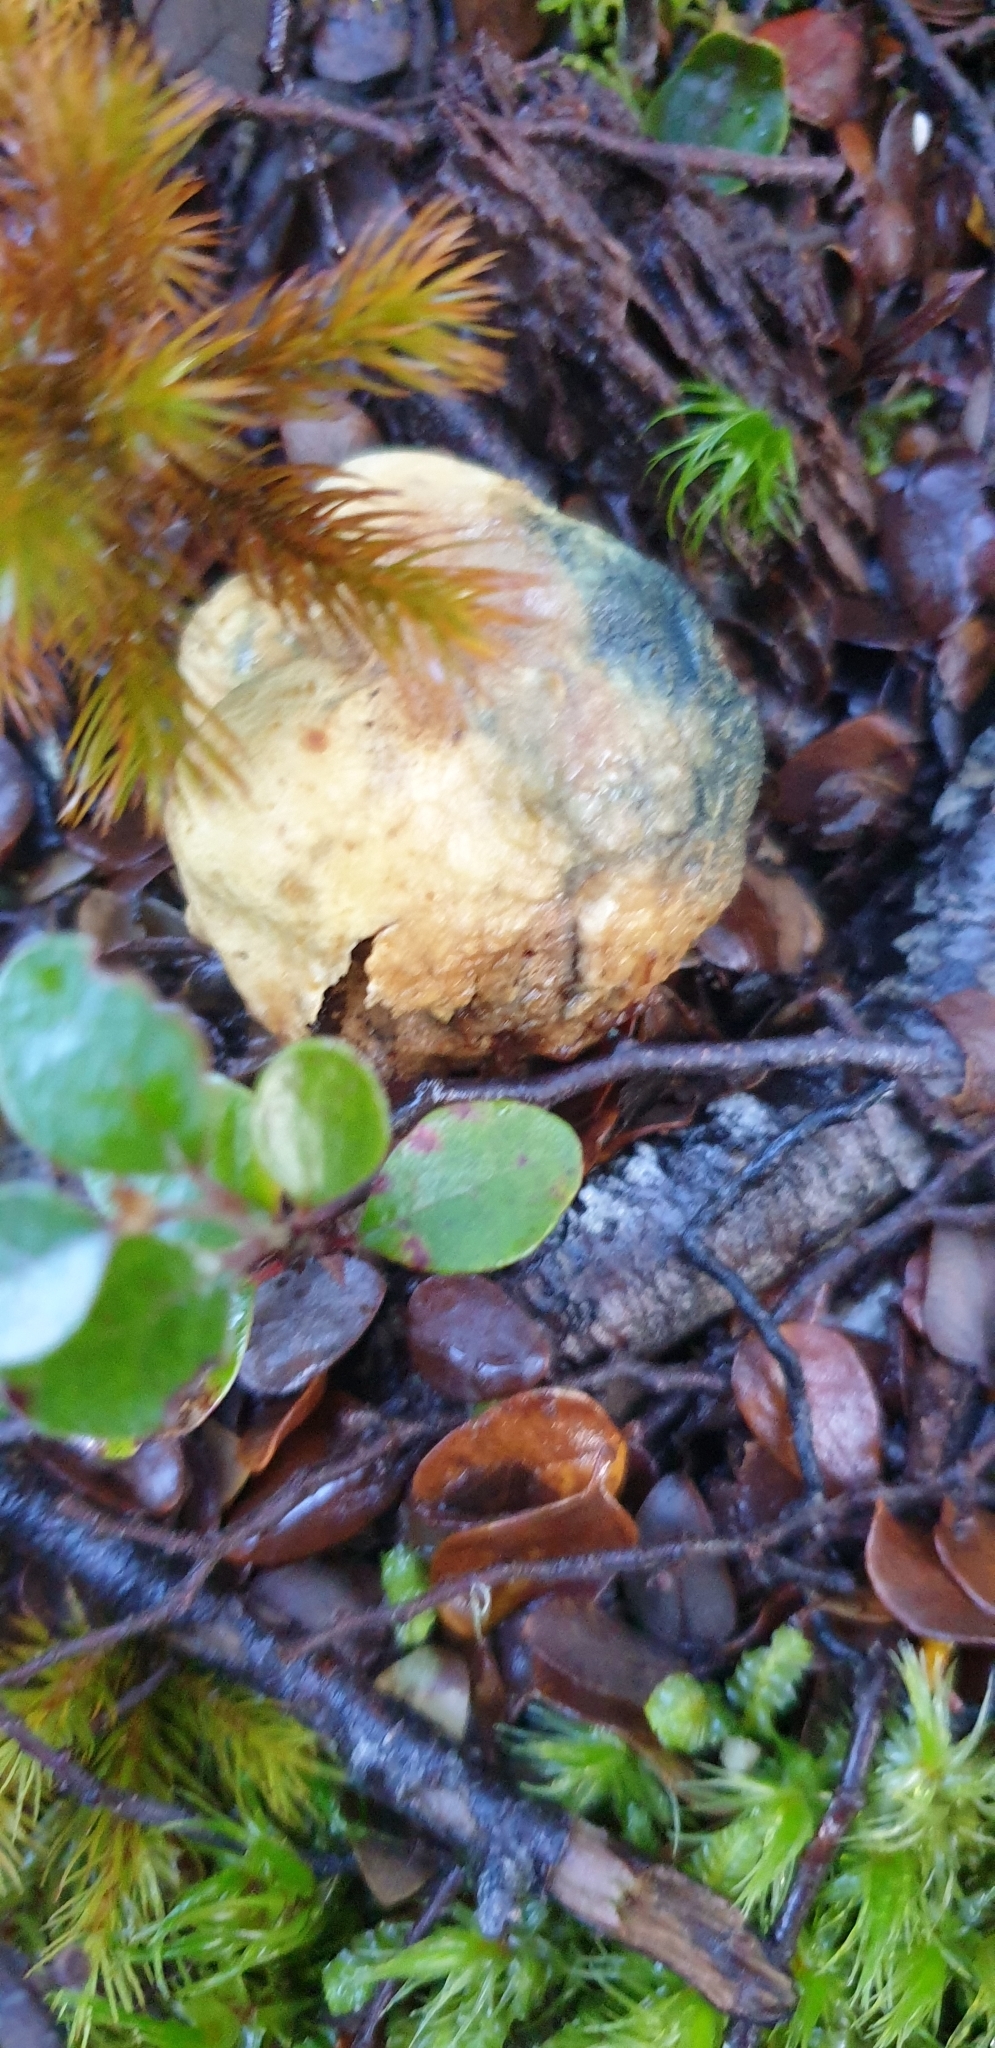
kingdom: Fungi
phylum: Basidiomycota
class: Agaricomycetes
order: Boletales
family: Boletaceae
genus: Leccinum
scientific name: Leccinum pachyderme
